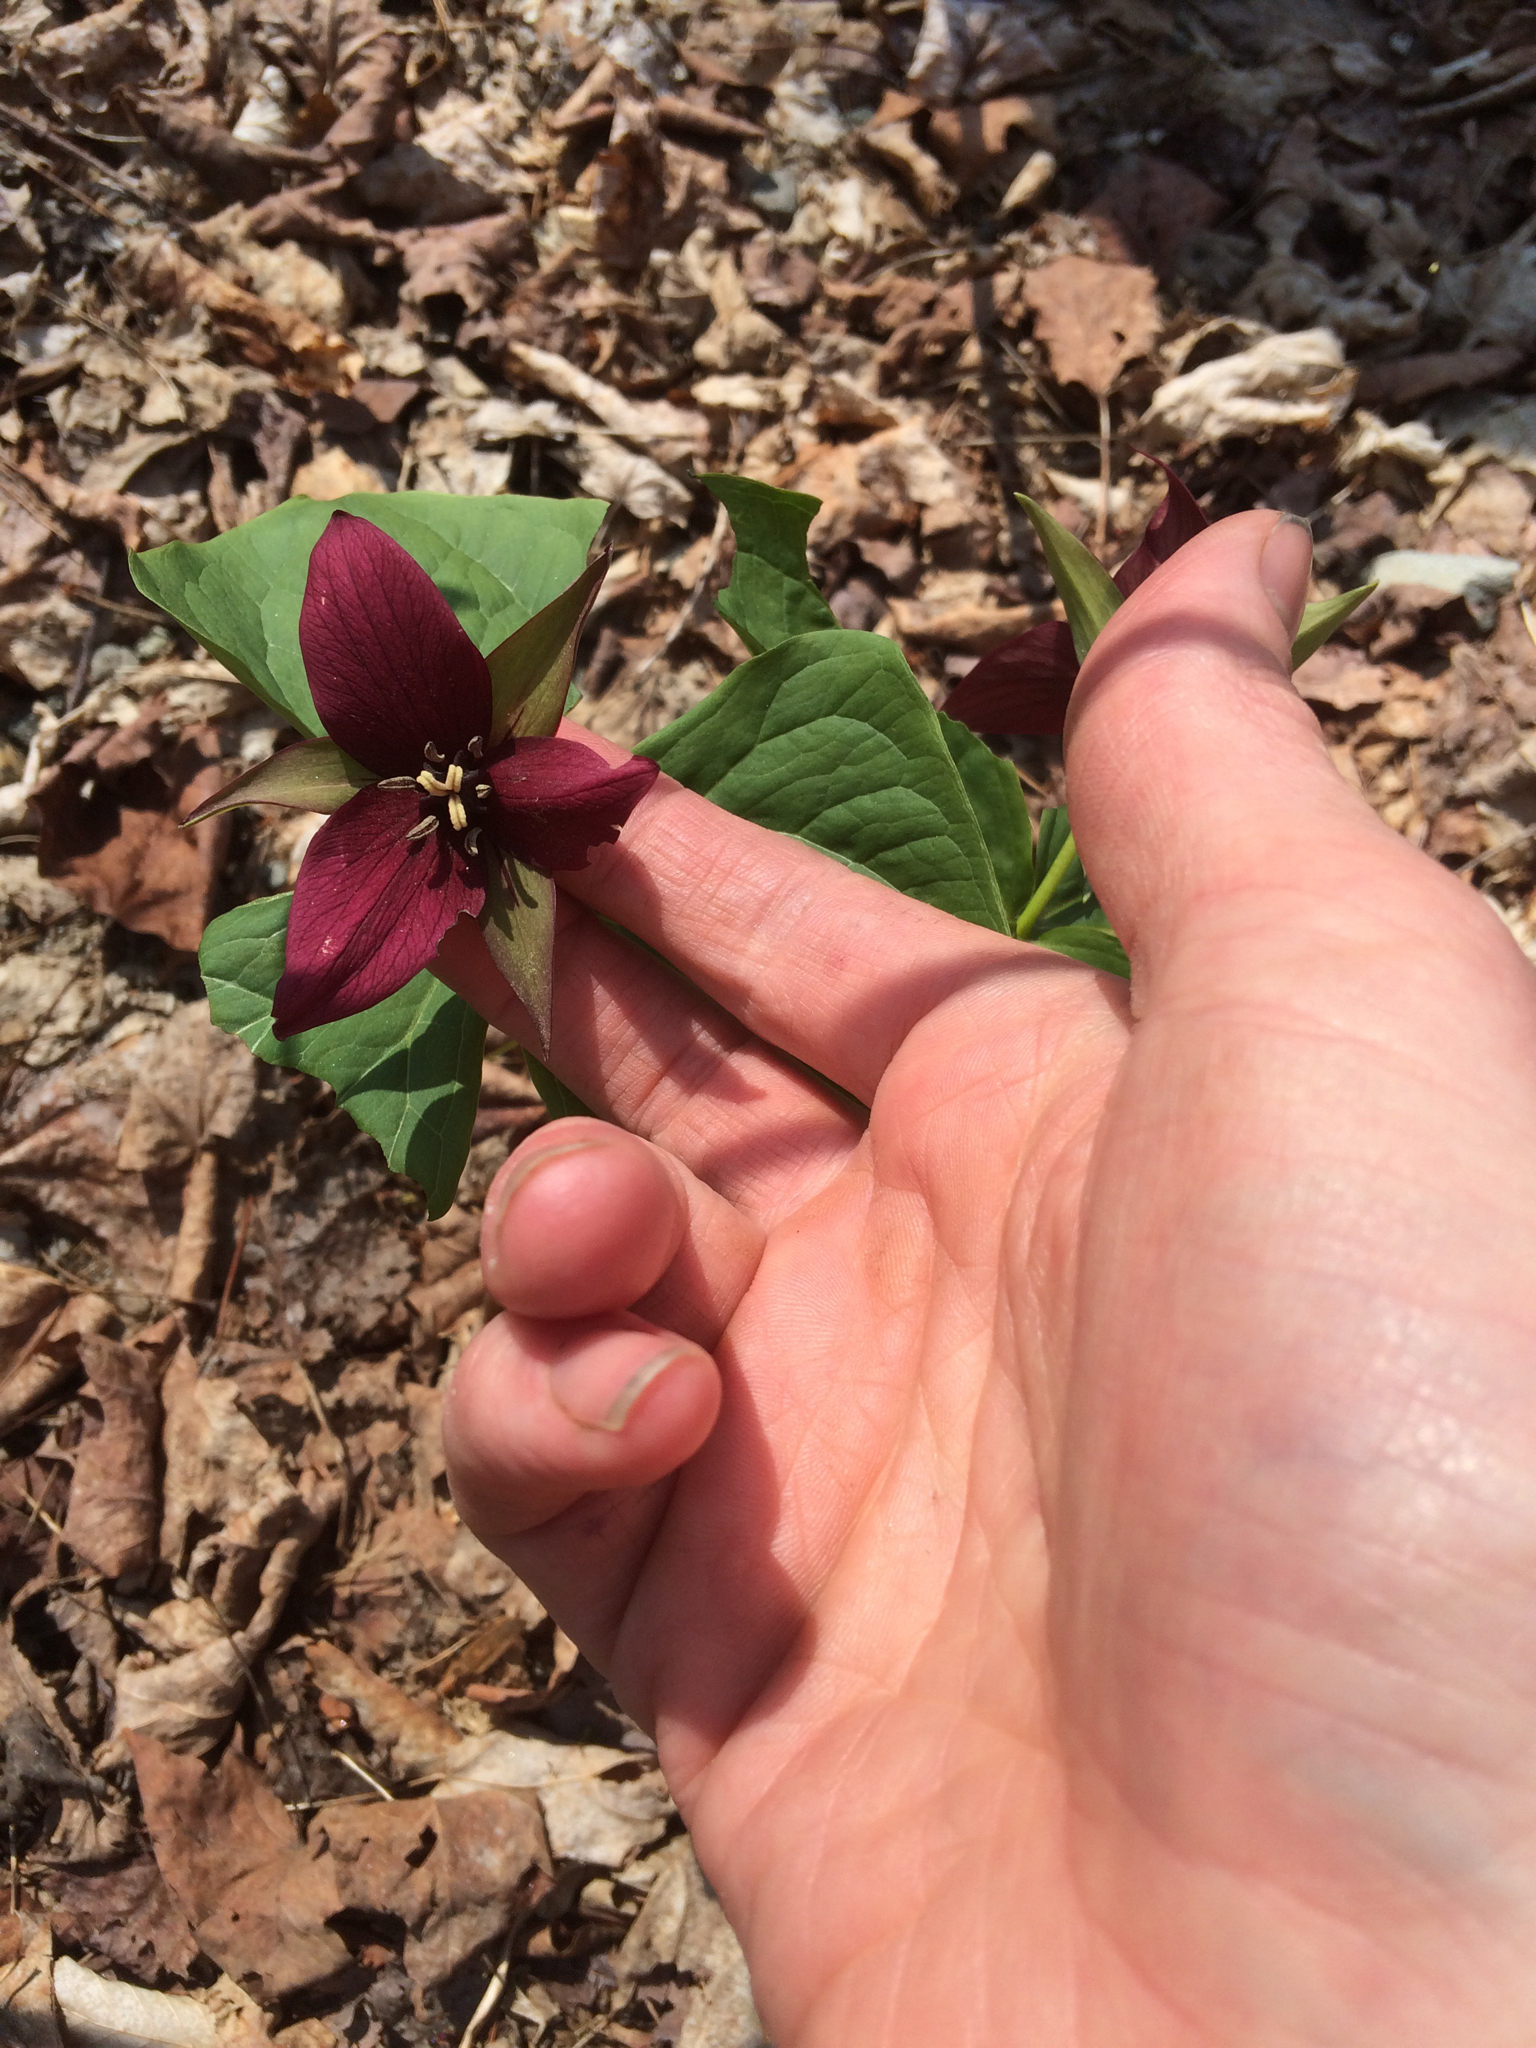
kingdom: Plantae
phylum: Tracheophyta
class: Liliopsida
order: Liliales
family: Melanthiaceae
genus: Trillium
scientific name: Trillium erectum
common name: Purple trillium
